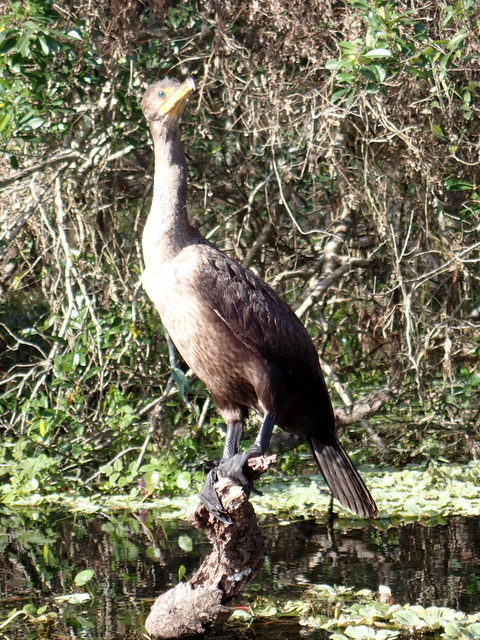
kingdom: Animalia
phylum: Chordata
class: Aves
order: Suliformes
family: Phalacrocoracidae
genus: Phalacrocorax
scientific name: Phalacrocorax auritus
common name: Double-crested cormorant
